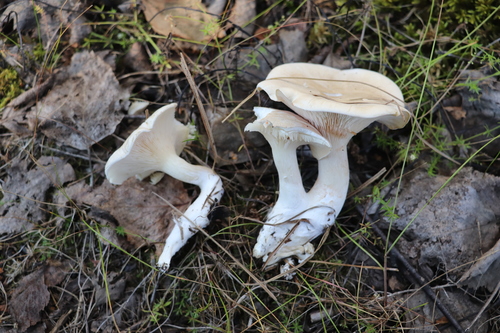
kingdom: Fungi
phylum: Basidiomycota
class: Agaricomycetes
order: Agaricales
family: Entolomataceae
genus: Clitopilus
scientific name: Clitopilus prunulus
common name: The miller
